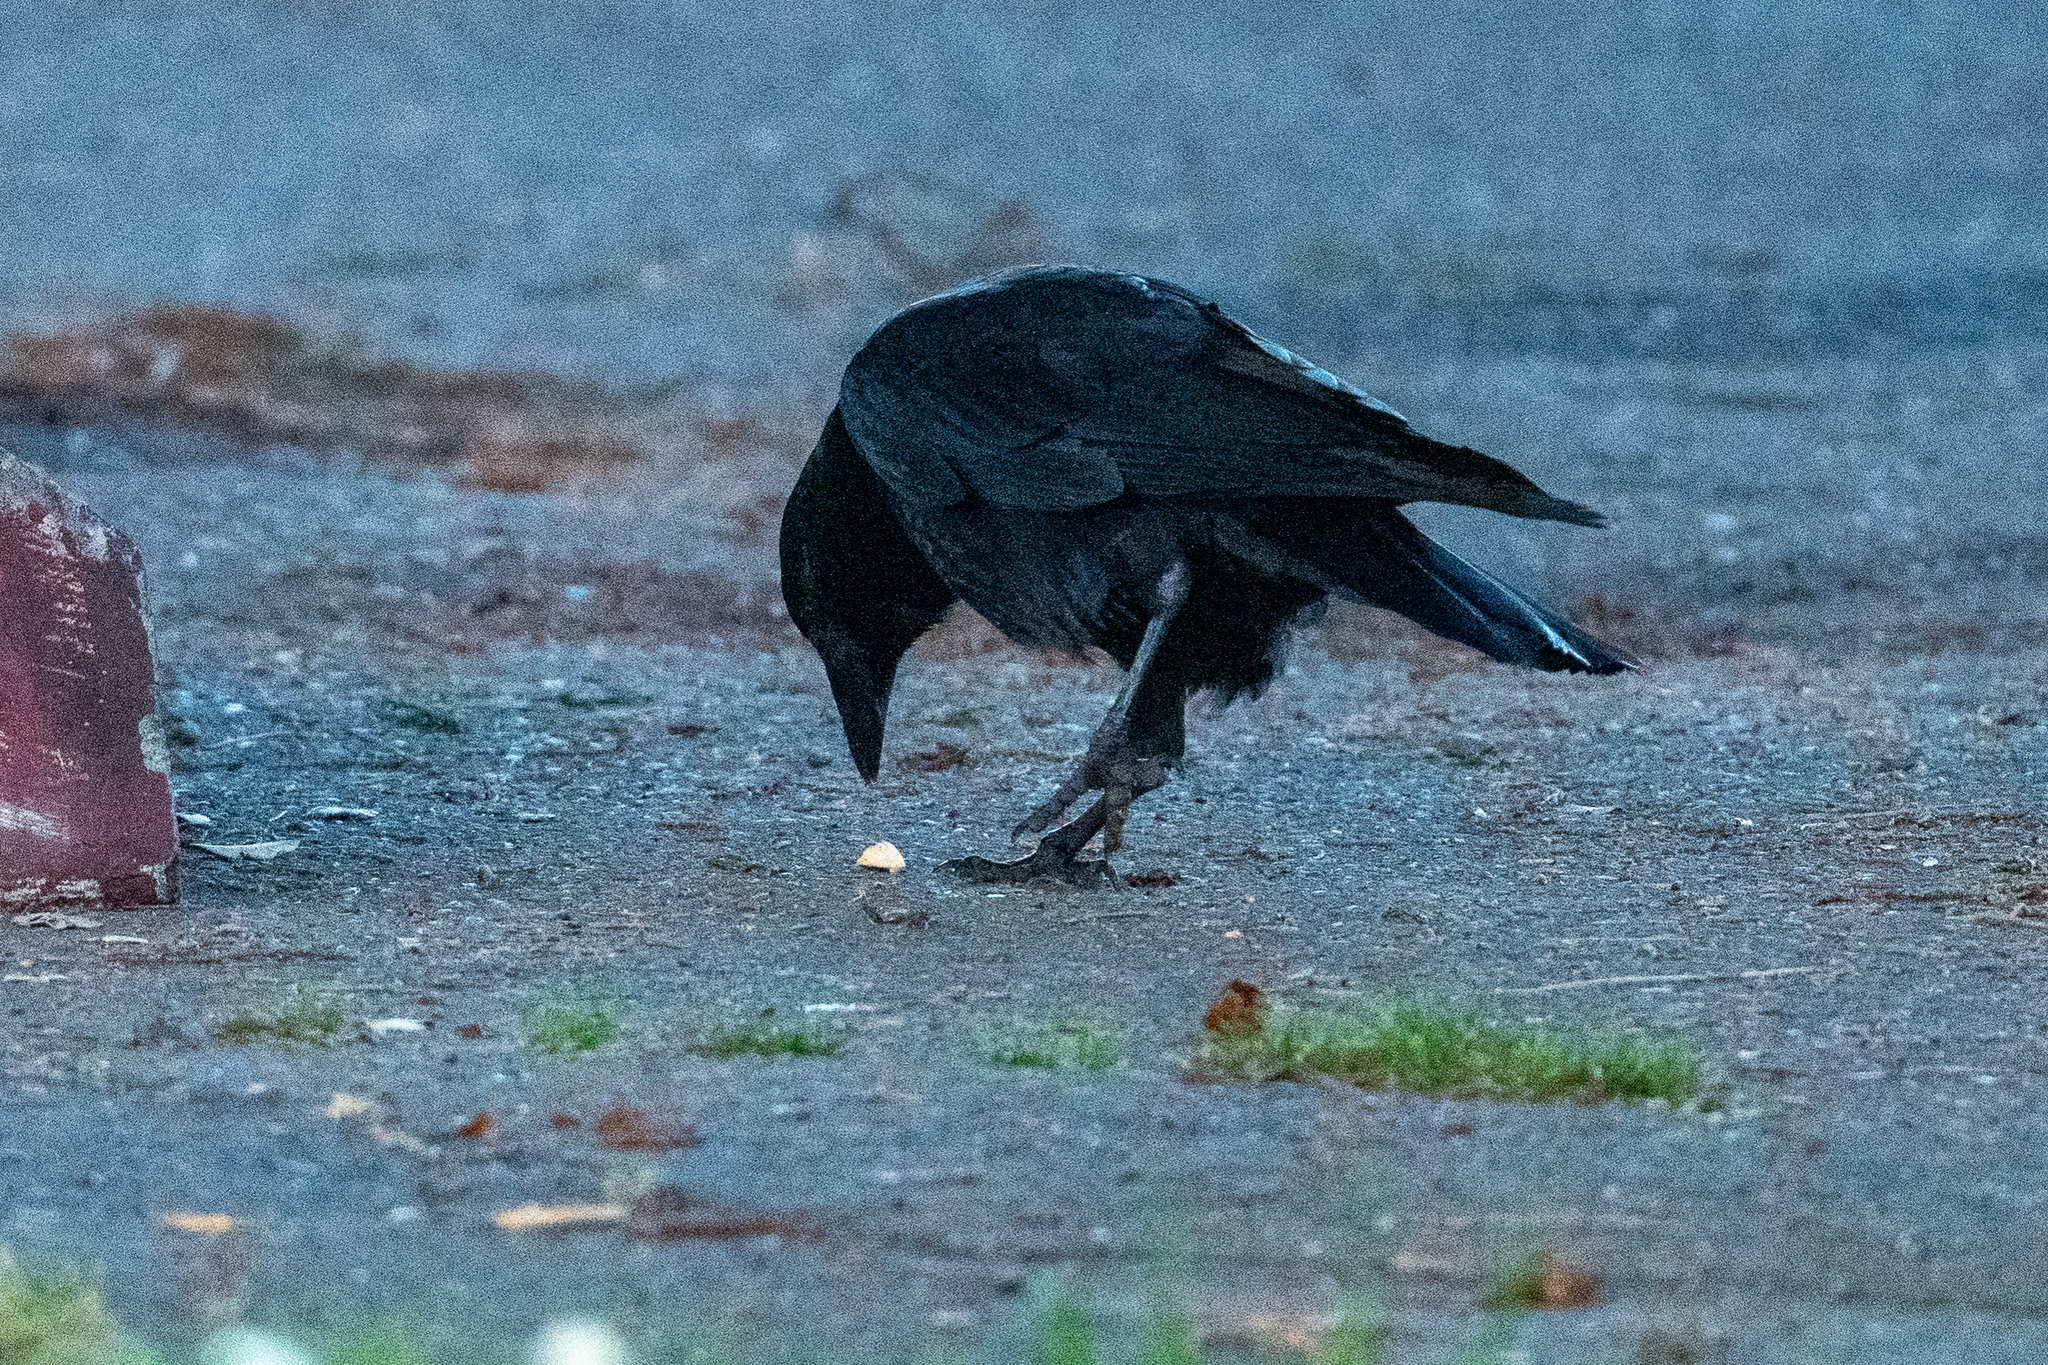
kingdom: Animalia
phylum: Chordata
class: Aves
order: Passeriformes
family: Corvidae
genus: Corvus
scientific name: Corvus brachyrhynchos
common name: American crow
